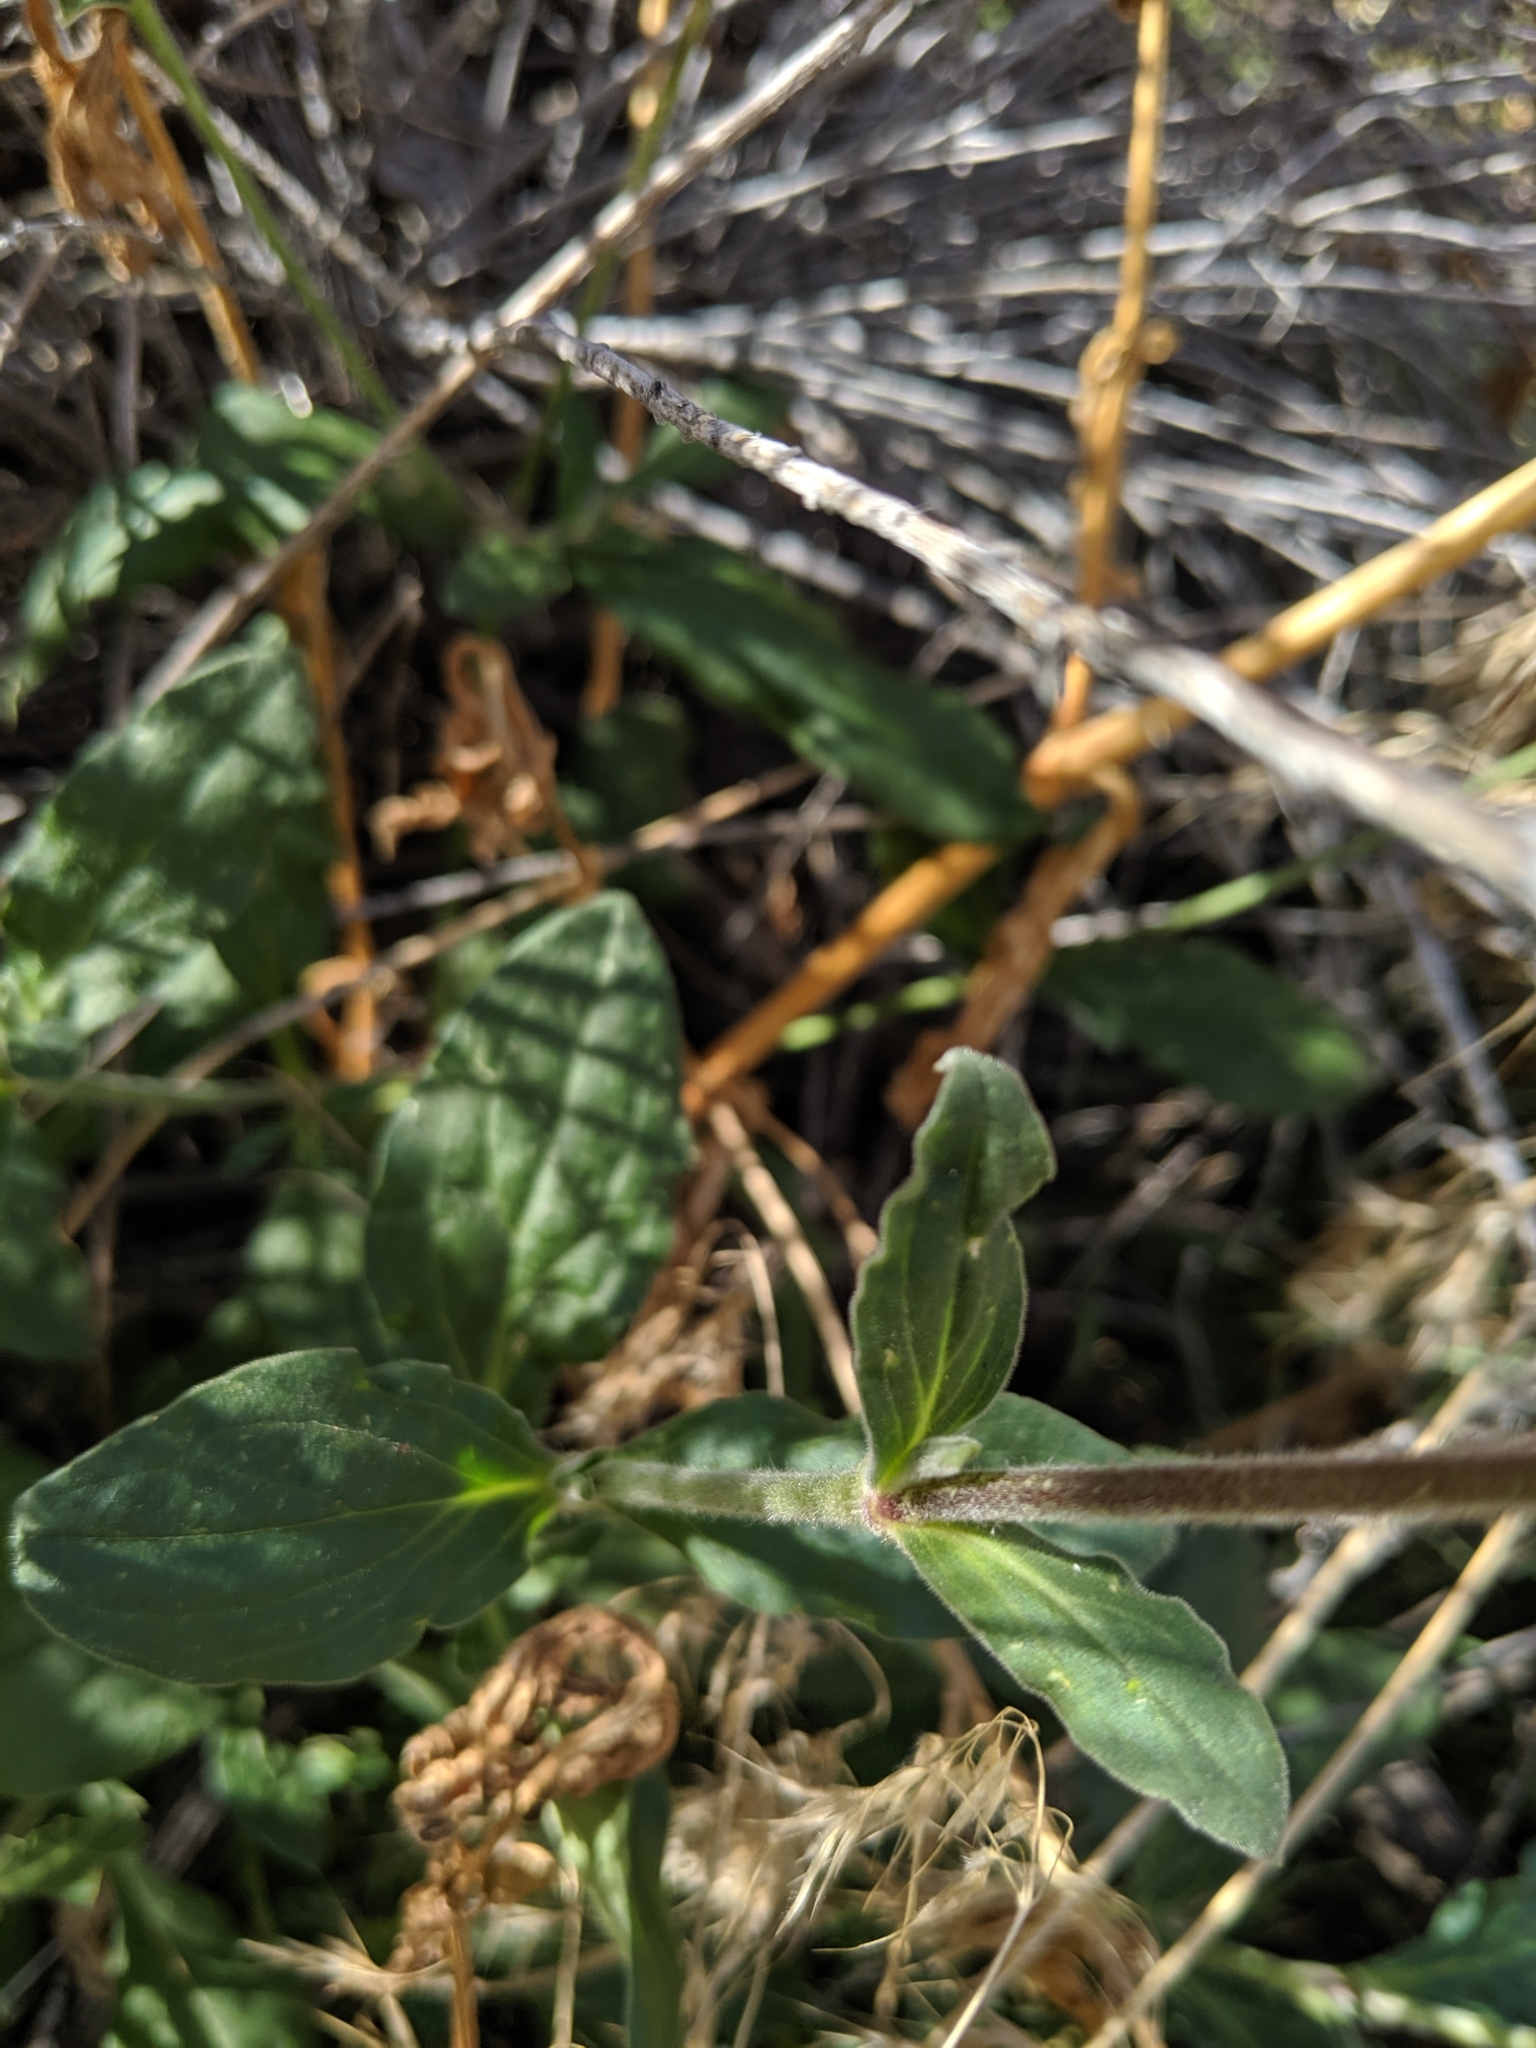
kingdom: Plantae
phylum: Tracheophyta
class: Magnoliopsida
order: Caryophyllales
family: Caryophyllaceae
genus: Silene
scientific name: Silene latifolia
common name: White campion
